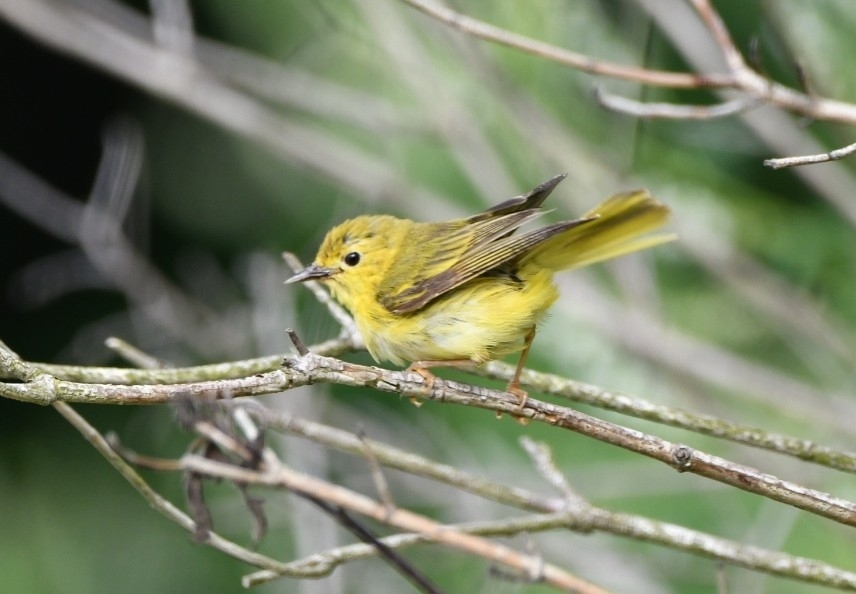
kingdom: Animalia
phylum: Chordata
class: Aves
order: Passeriformes
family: Parulidae
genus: Setophaga
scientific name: Setophaga petechia
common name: Yellow warbler
